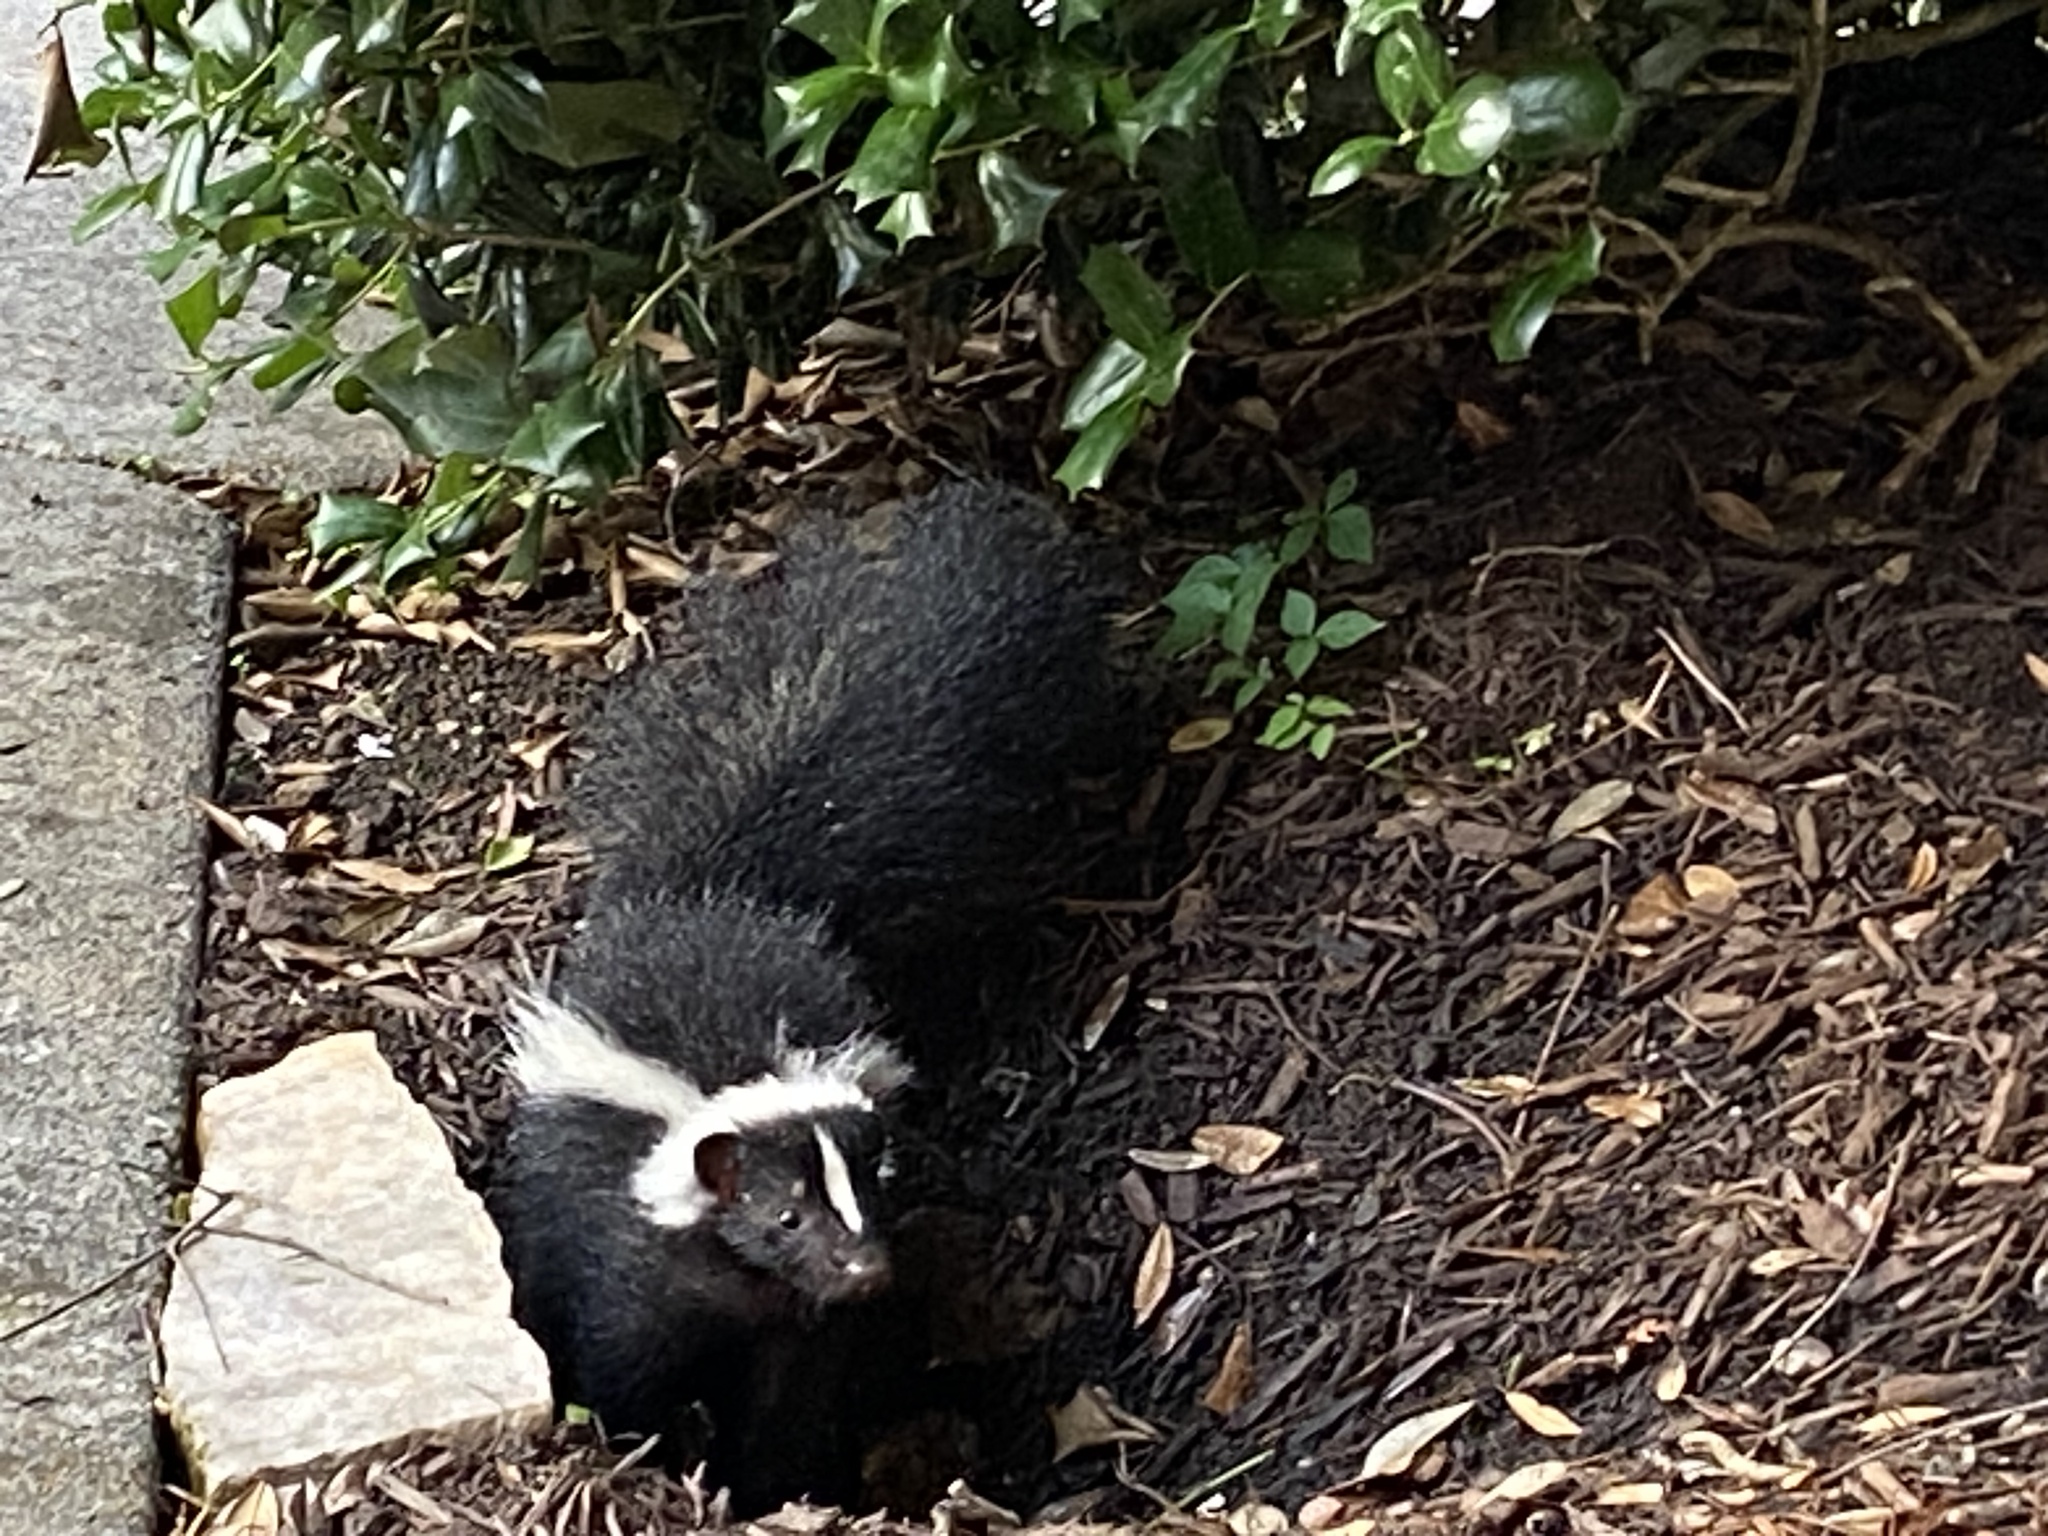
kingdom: Animalia
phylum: Chordata
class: Mammalia
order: Carnivora
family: Mephitidae
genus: Mephitis
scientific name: Mephitis mephitis
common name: Striped skunk
